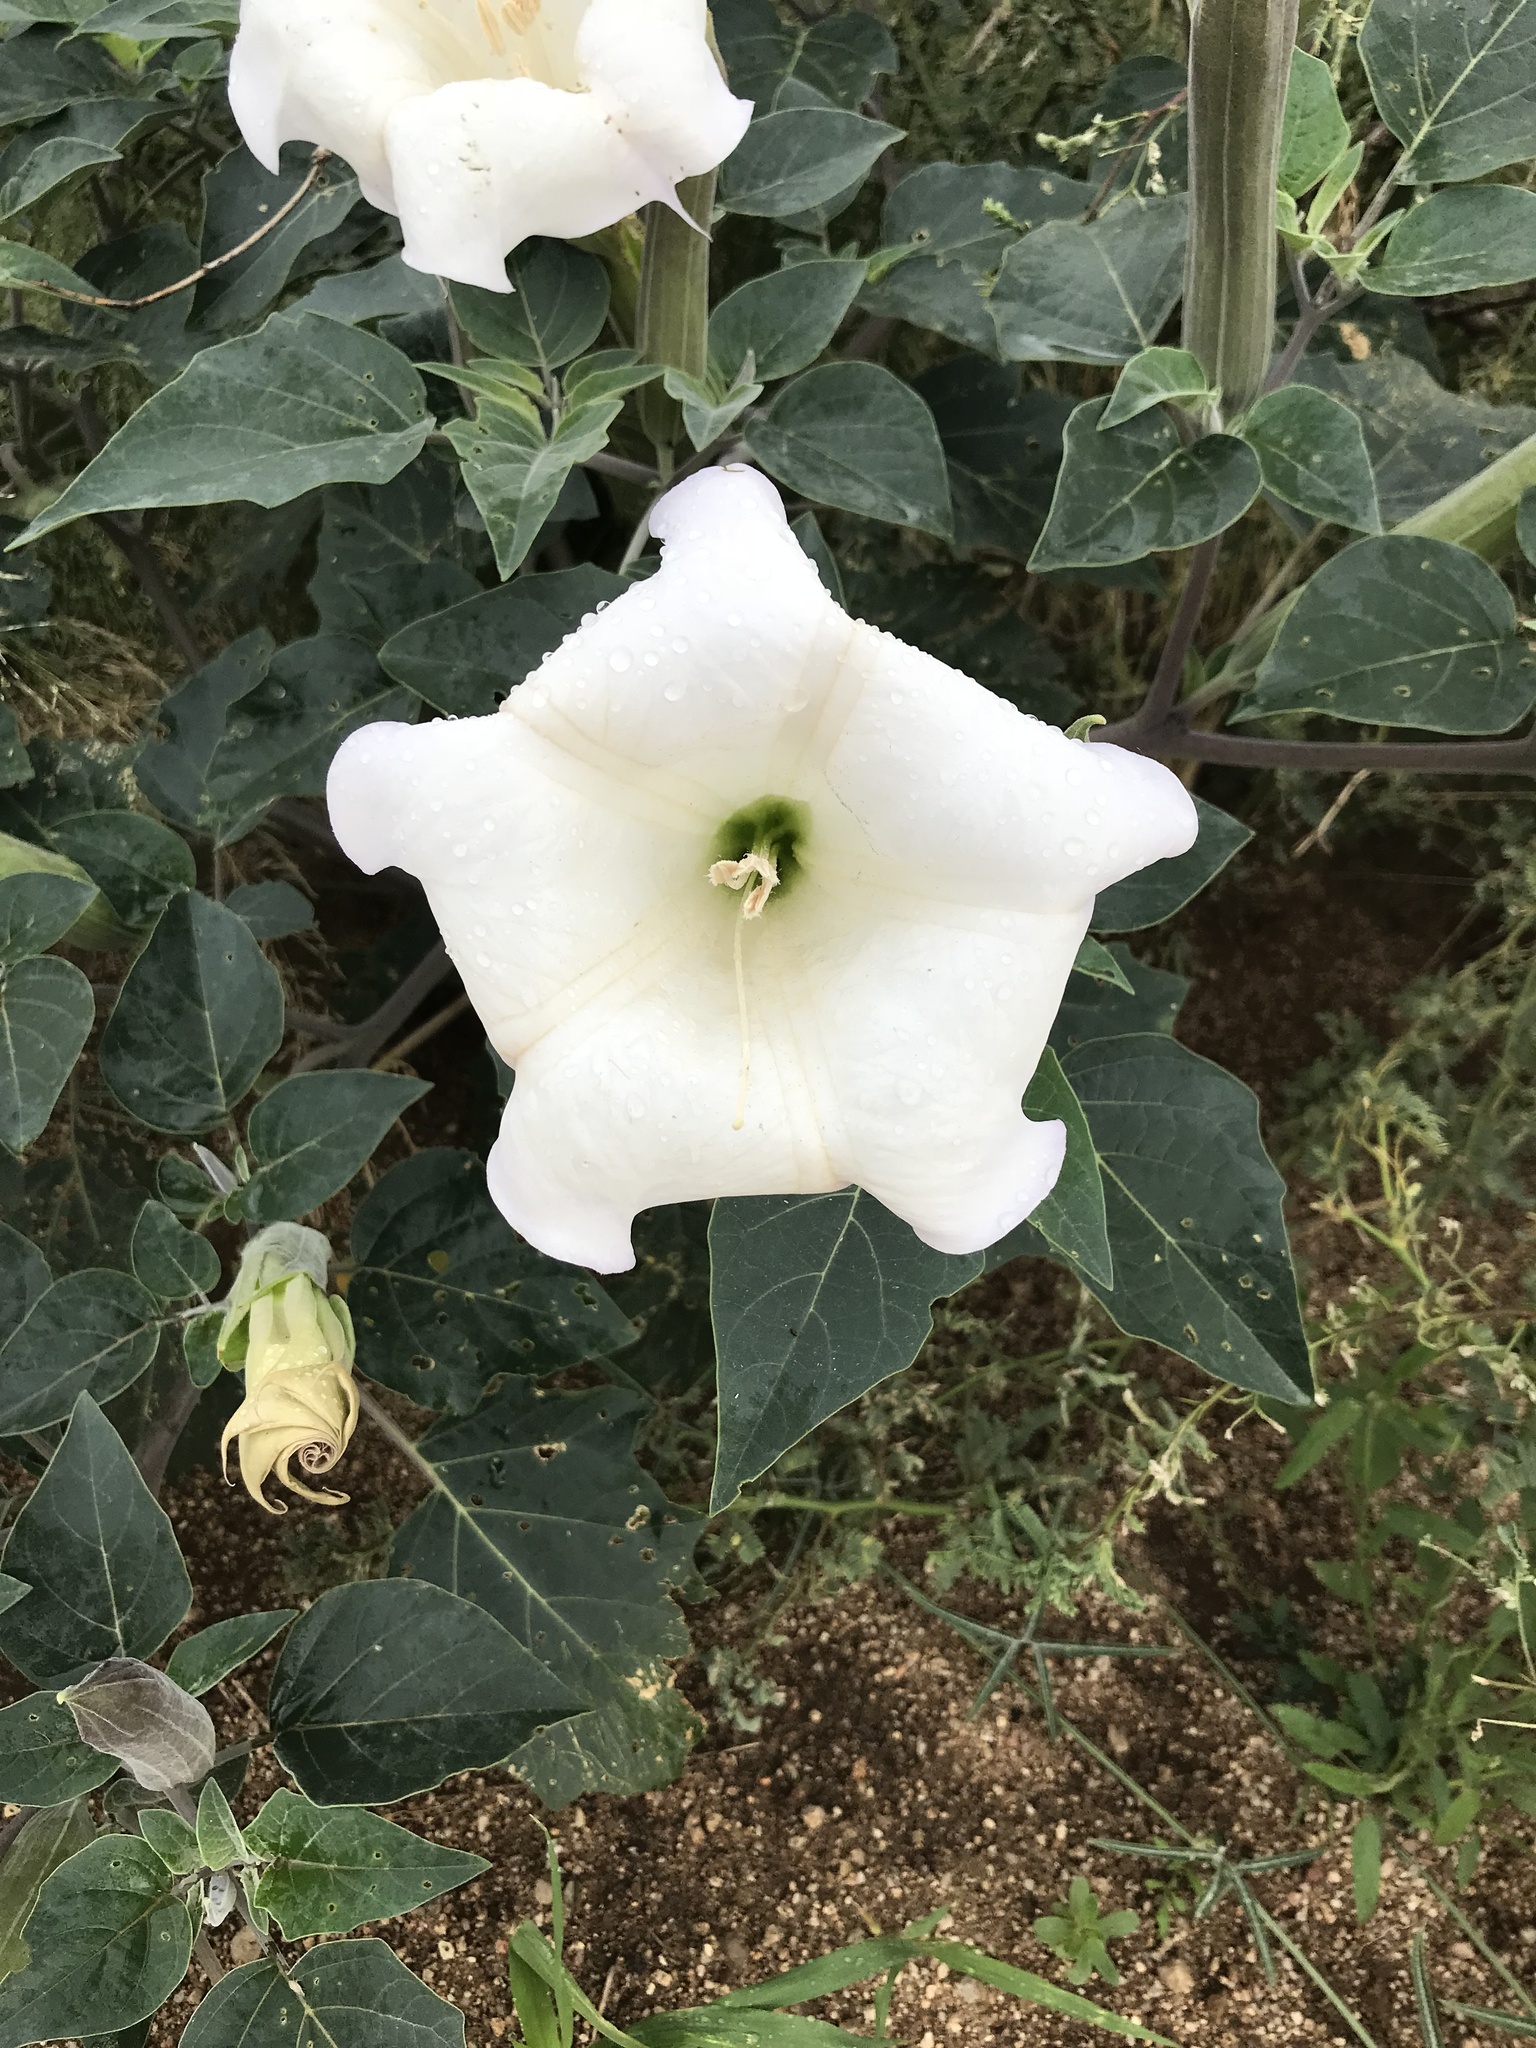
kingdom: Plantae
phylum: Tracheophyta
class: Magnoliopsida
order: Solanales
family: Solanaceae
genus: Datura
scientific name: Datura wrightii
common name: Sacred thorn-apple
